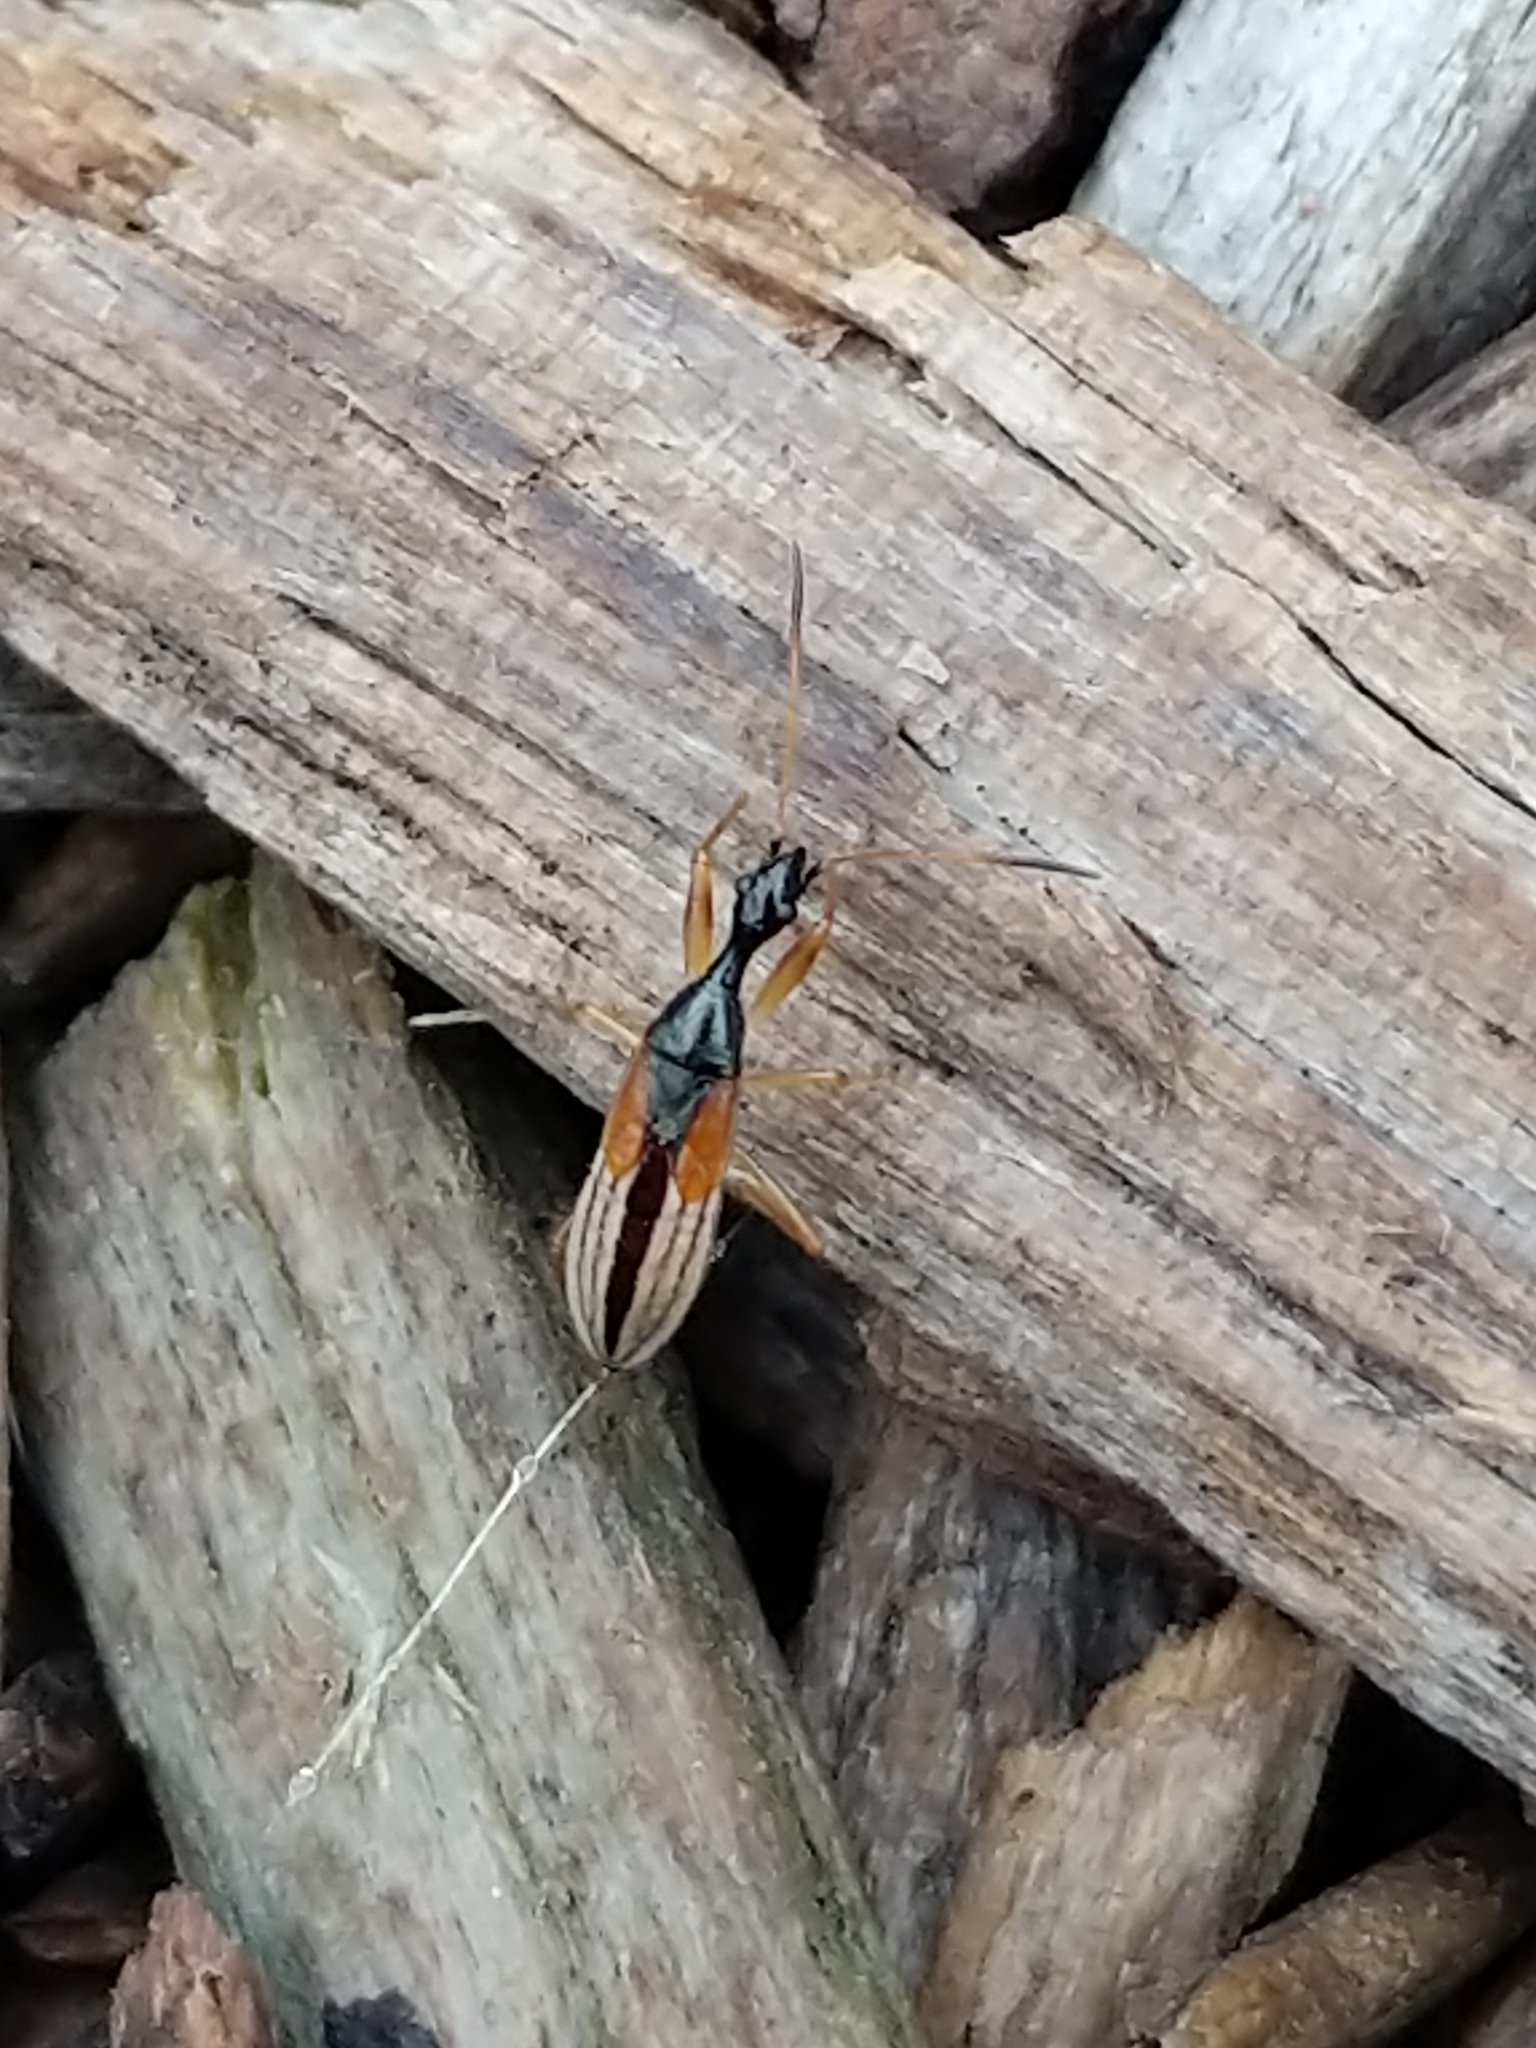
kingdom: Animalia
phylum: Arthropoda
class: Insecta
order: Hemiptera
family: Rhyparochromidae
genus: Myodocha
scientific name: Myodocha serripes
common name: Long-necked seed bug
